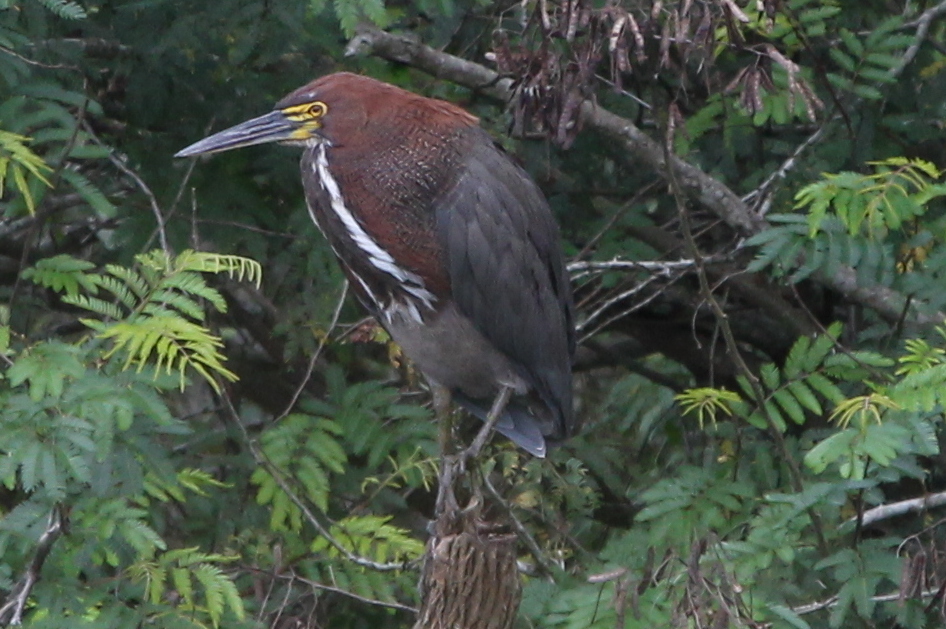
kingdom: Animalia
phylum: Chordata
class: Aves
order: Pelecaniformes
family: Ardeidae
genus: Tigrisoma
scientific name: Tigrisoma lineatum
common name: Rufescent tiger-heron
